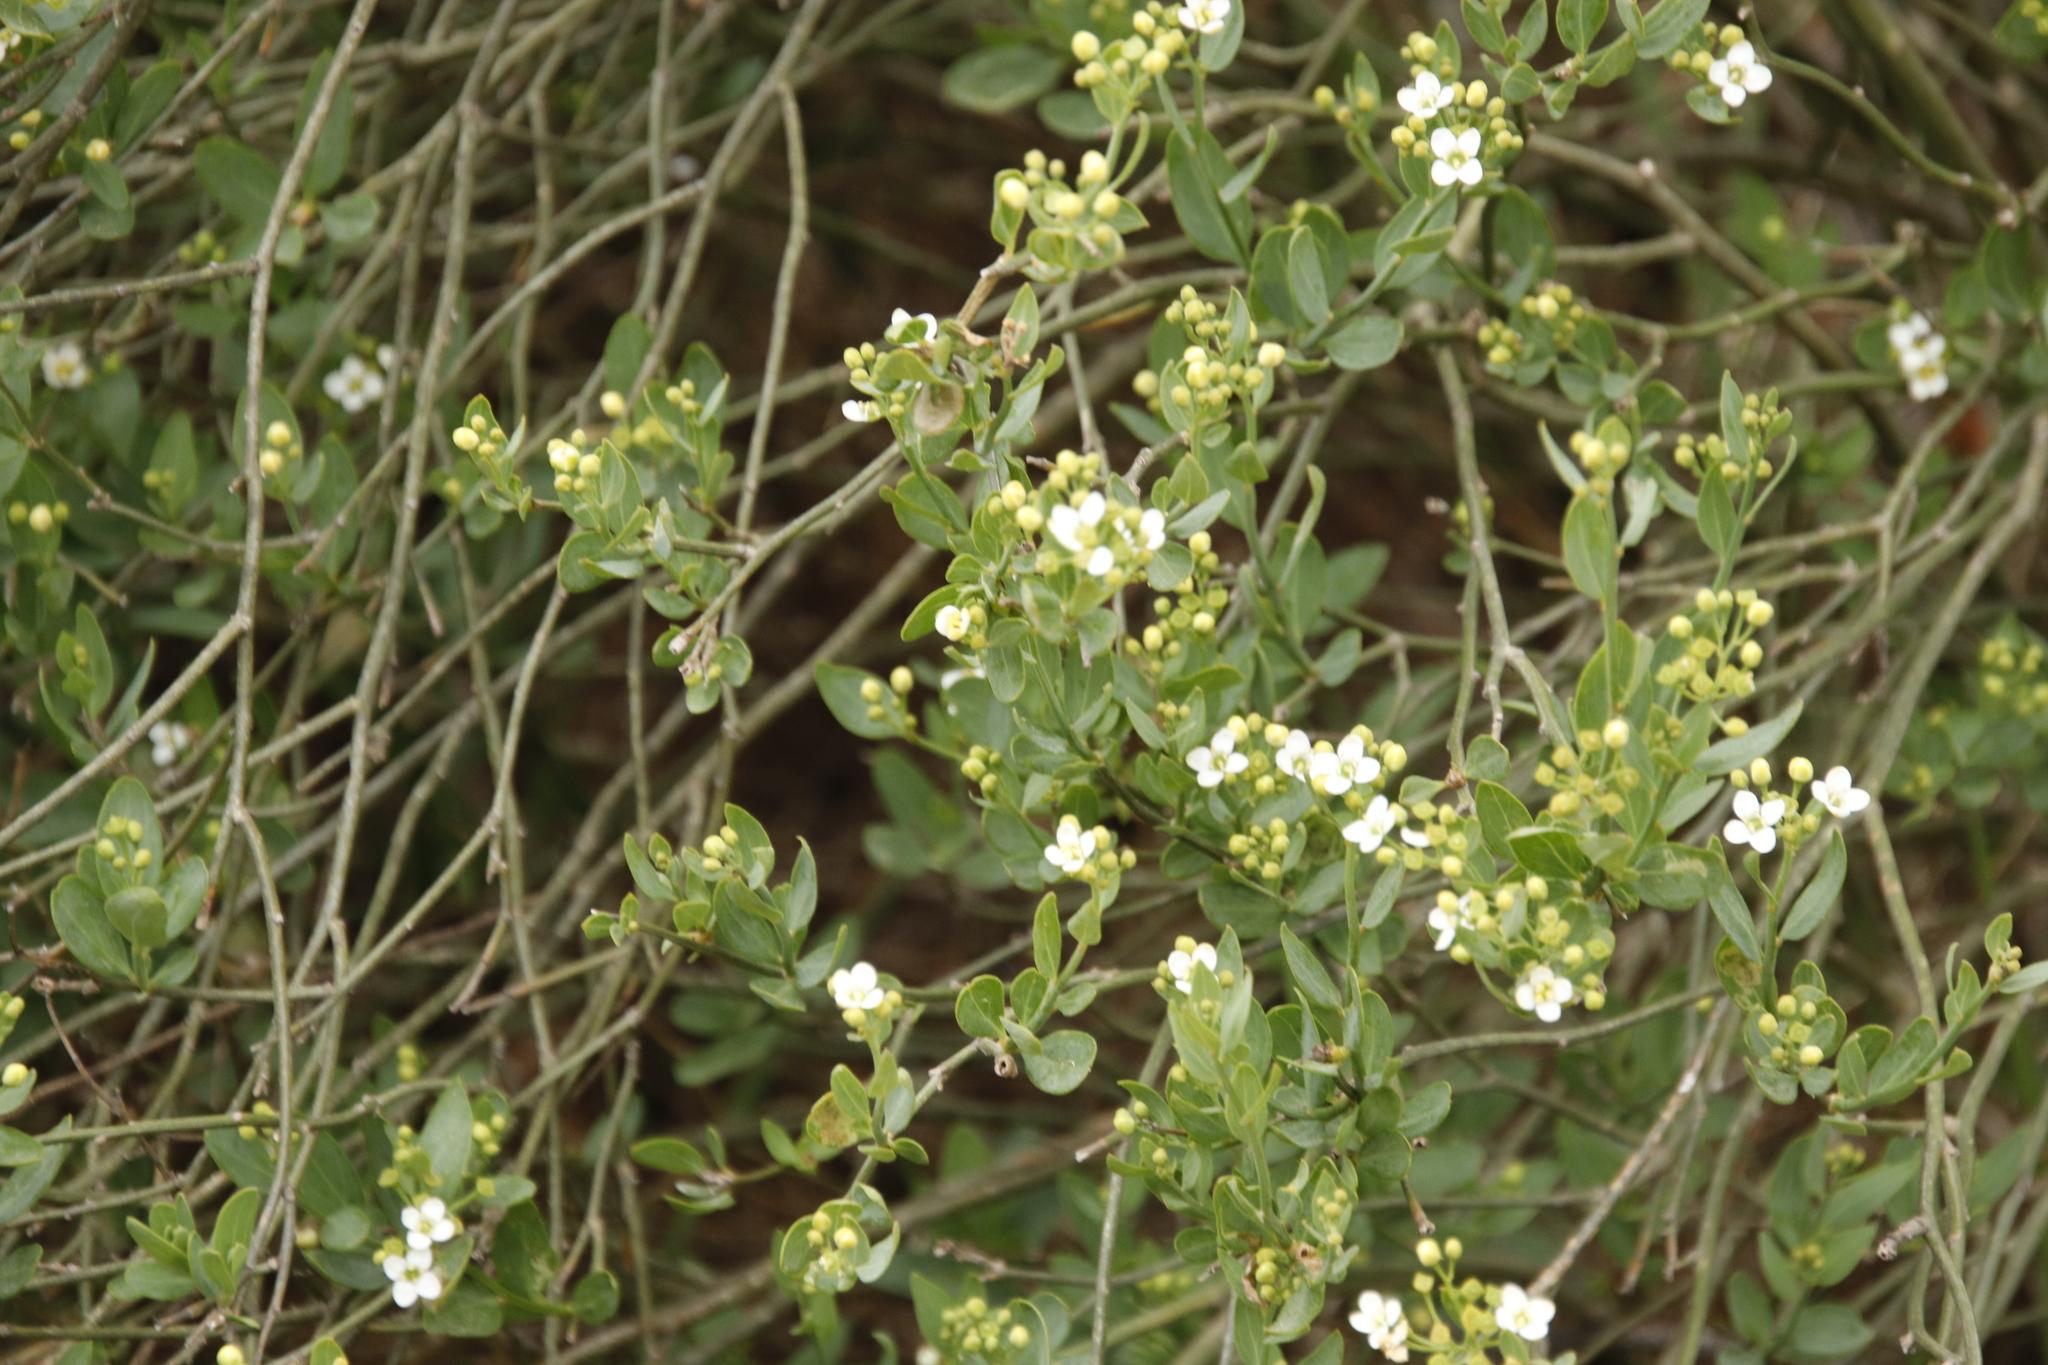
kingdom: Plantae
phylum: Tracheophyta
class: Magnoliopsida
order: Solanales
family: Montiniaceae
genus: Montinia
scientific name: Montinia caryophyllacea
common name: Wild clove-bush
